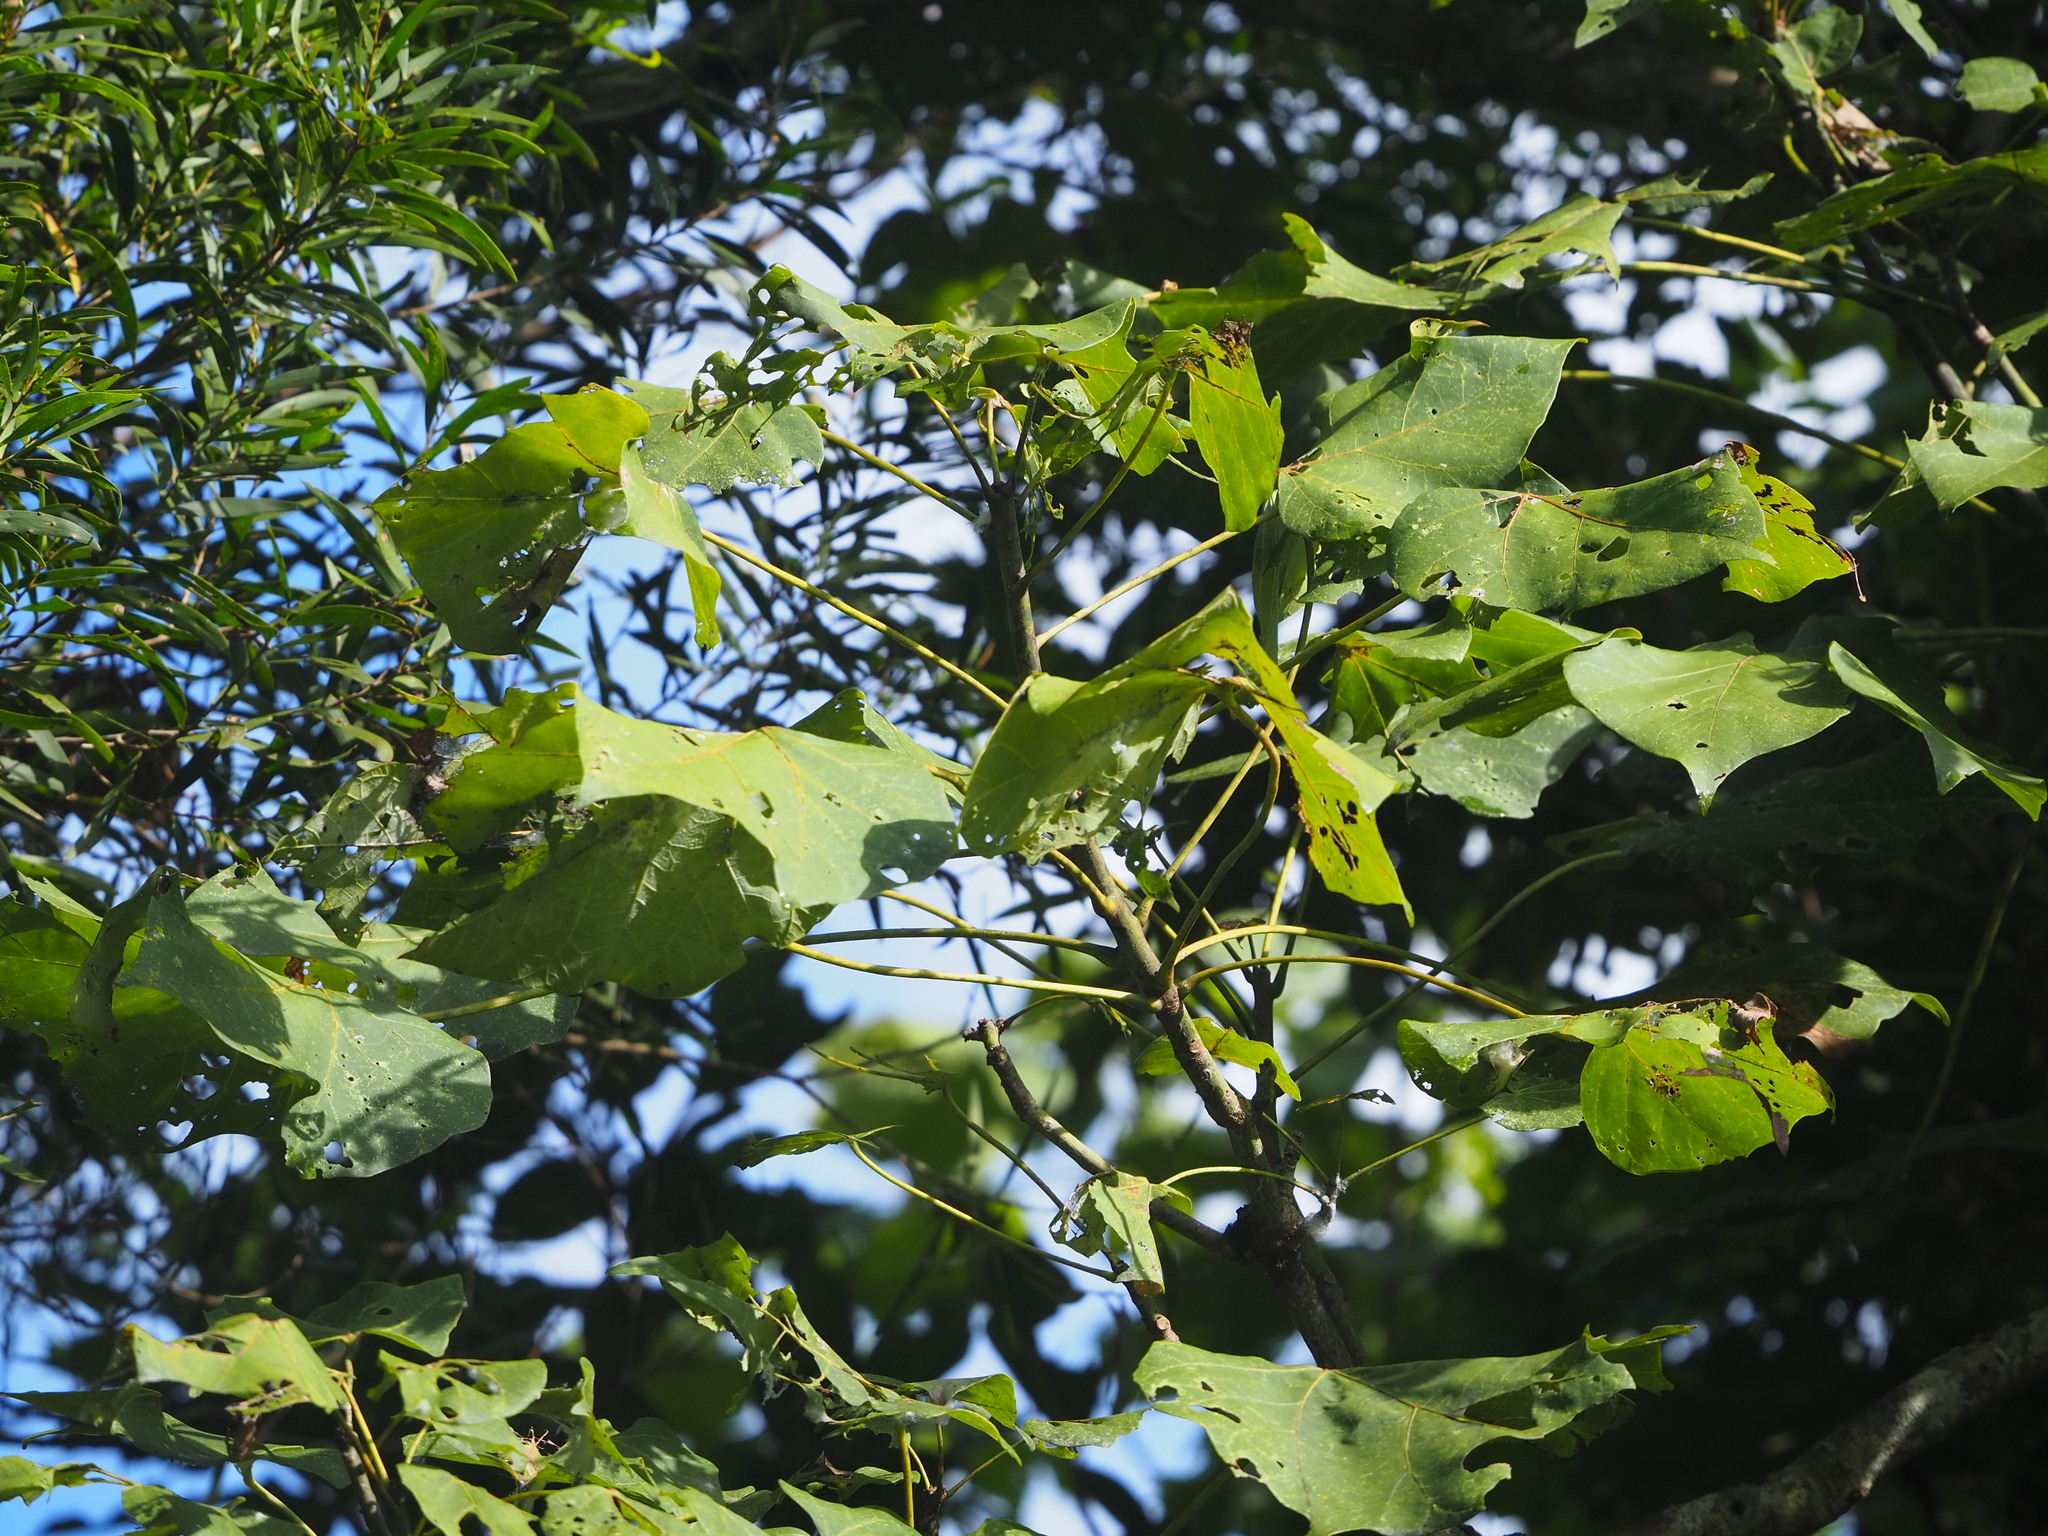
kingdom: Plantae
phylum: Tracheophyta
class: Magnoliopsida
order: Malvales
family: Malvaceae
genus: Firmiana
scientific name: Firmiana simplex
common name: Chinese parasoltree
